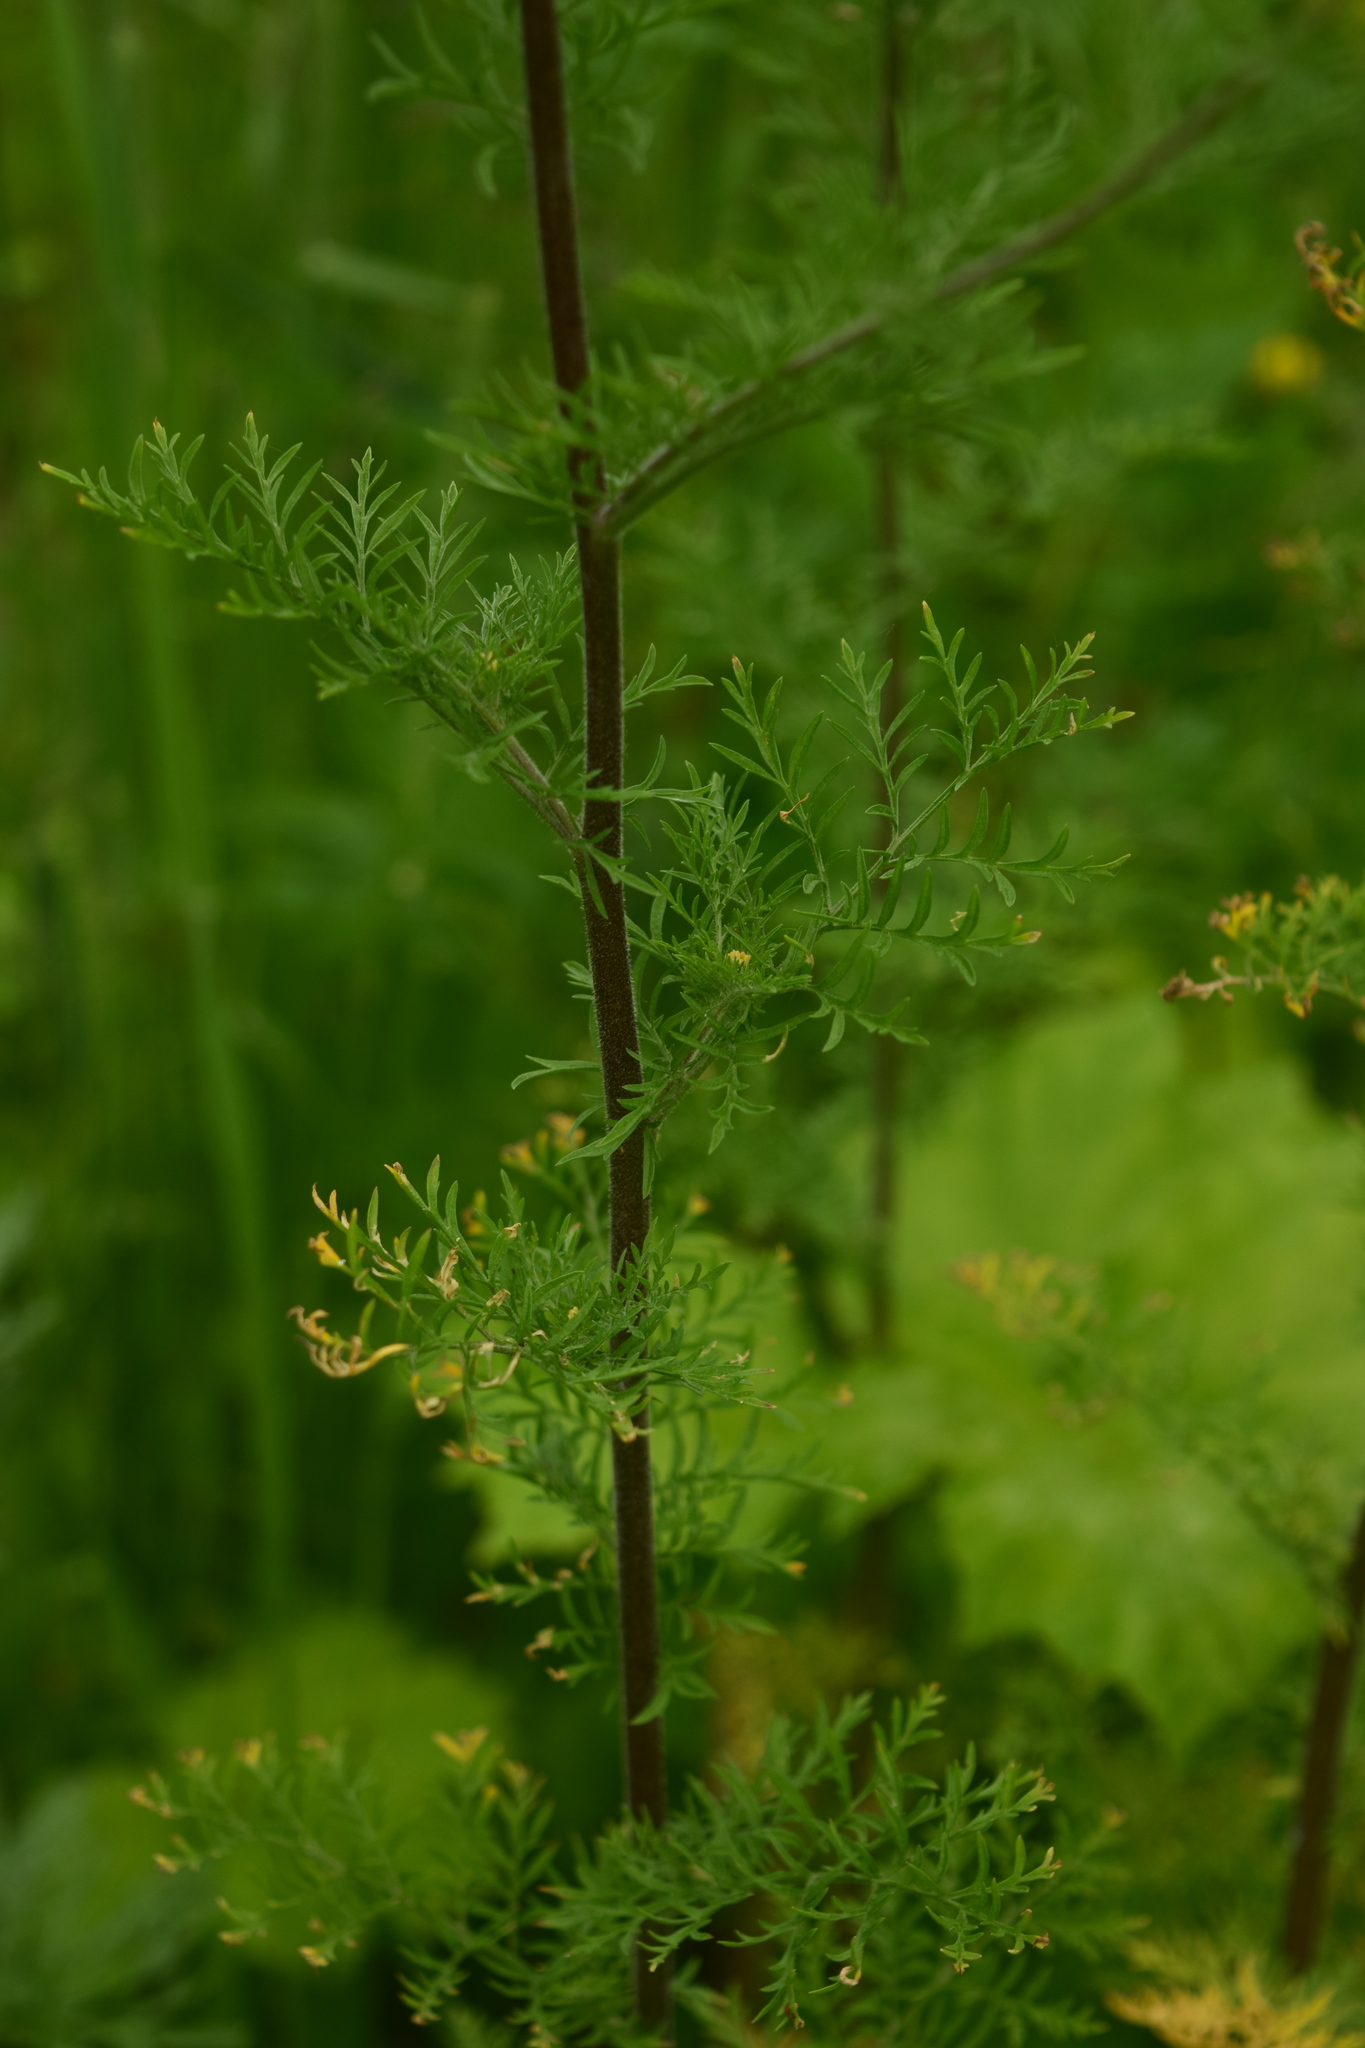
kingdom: Plantae
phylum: Tracheophyta
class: Magnoliopsida
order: Brassicales
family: Brassicaceae
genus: Descurainia
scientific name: Descurainia sophia
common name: Flixweed
